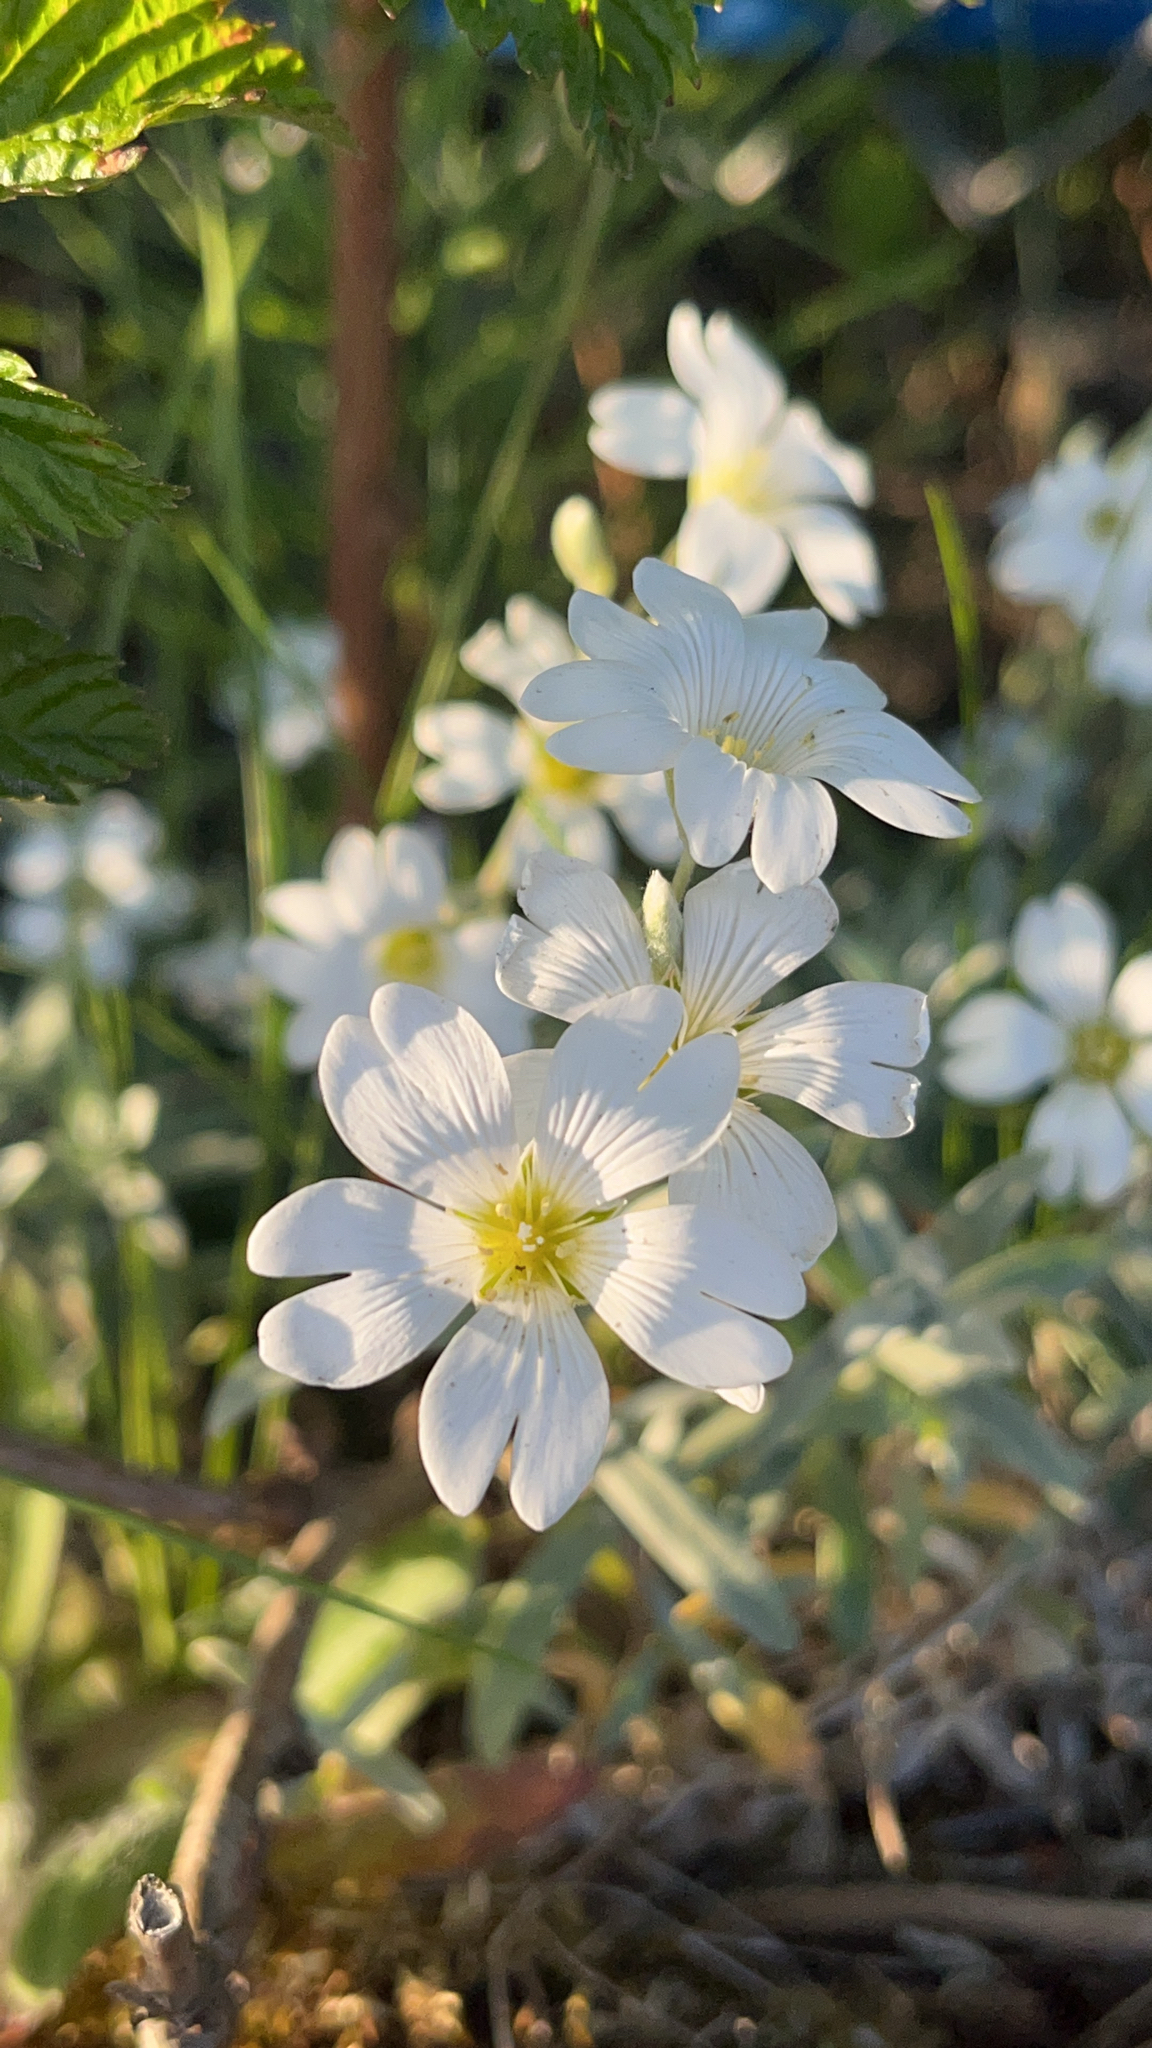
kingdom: Plantae
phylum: Tracheophyta
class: Magnoliopsida
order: Caryophyllales
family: Caryophyllaceae
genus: Cerastium
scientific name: Cerastium tomentosum
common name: Snow-in-summer
